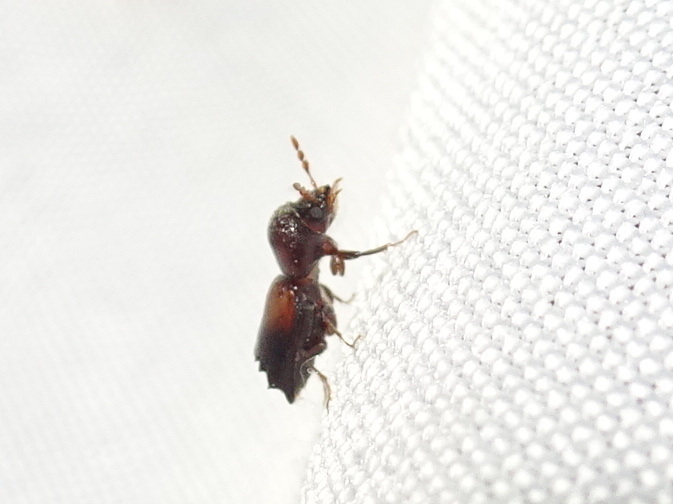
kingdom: Animalia
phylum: Arthropoda
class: Insecta
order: Coleoptera
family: Bostrichidae
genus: Xylobiops
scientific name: Xylobiops basilaris
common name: Red-shouldered bostrichid
